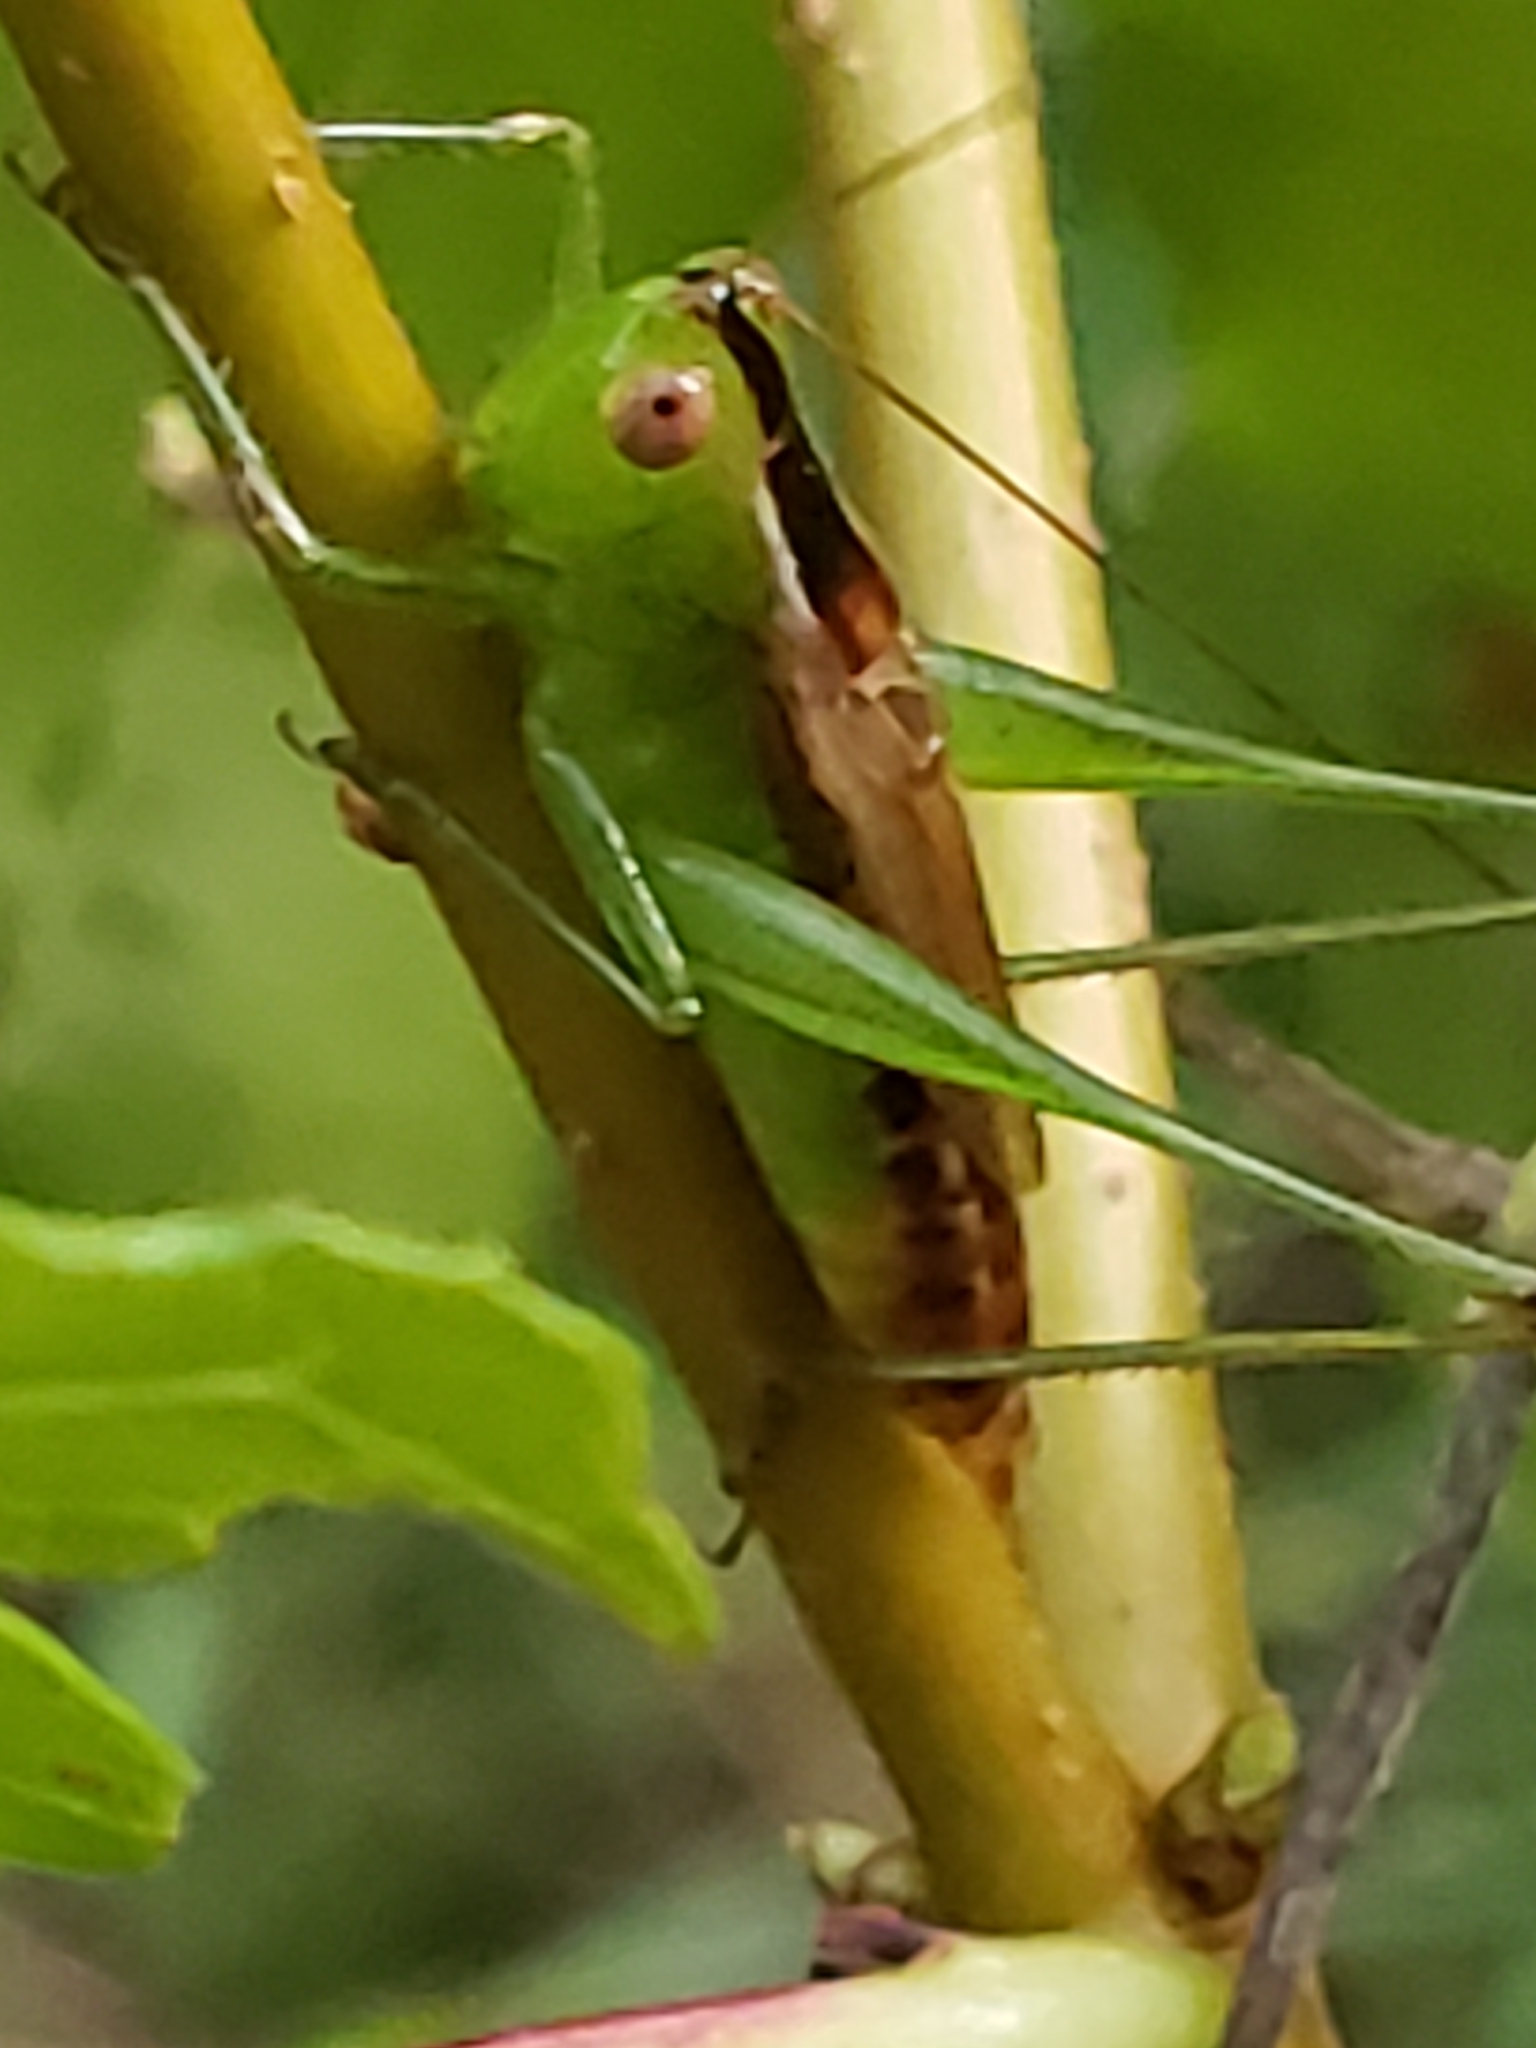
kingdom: Animalia
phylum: Arthropoda
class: Insecta
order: Orthoptera
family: Tettigoniidae
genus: Conocephalus
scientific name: Conocephalus brevipennis
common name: Short-winged meadow katydid
